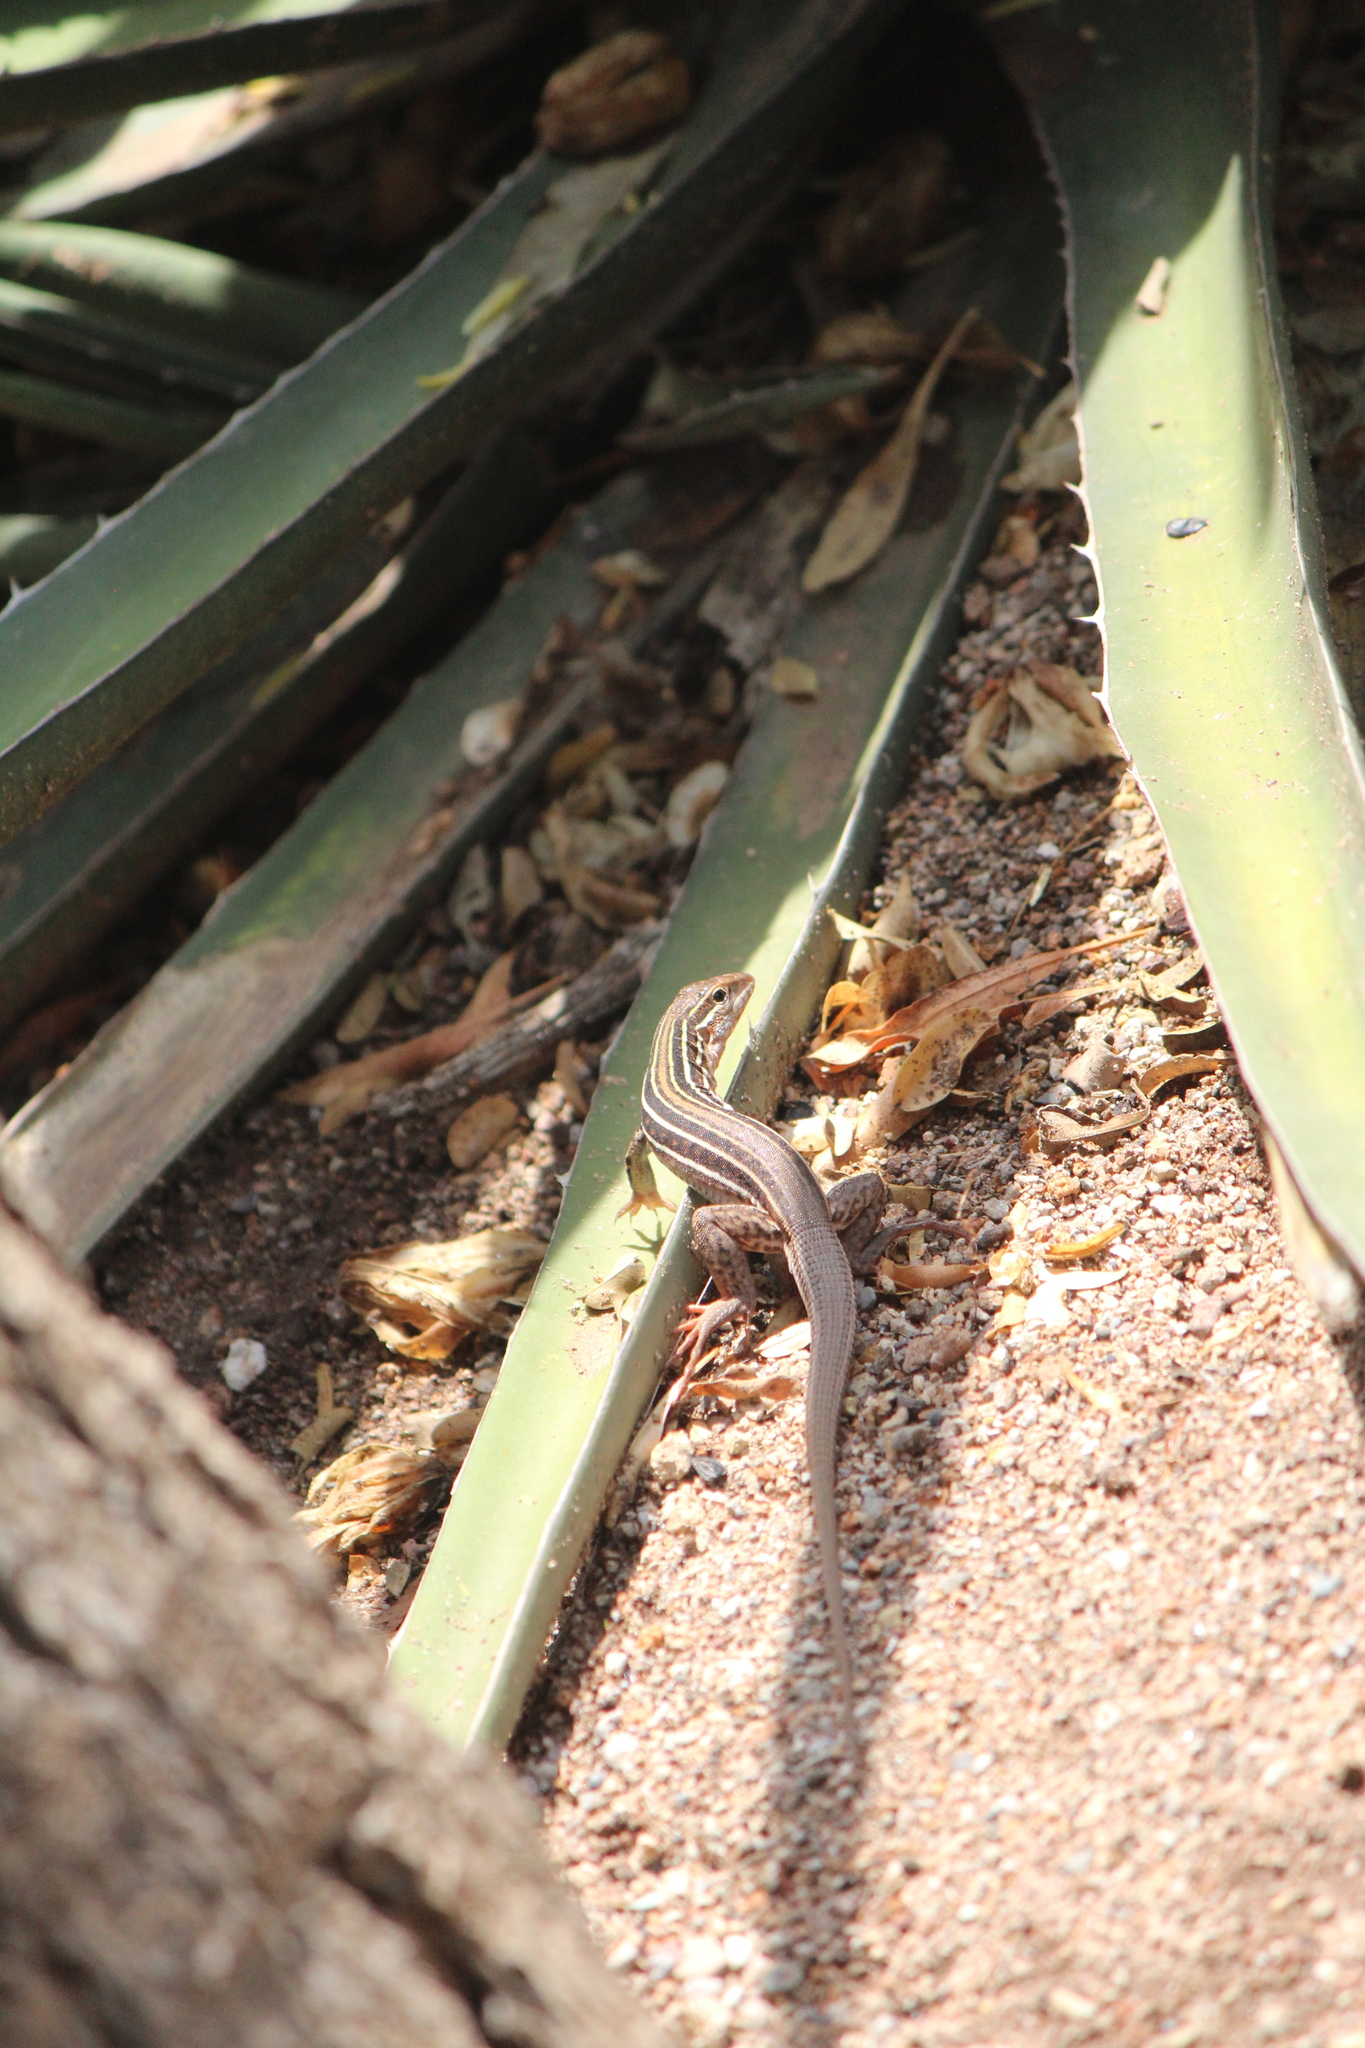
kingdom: Animalia
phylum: Chordata
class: Squamata
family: Teiidae
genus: Aspidoscelis
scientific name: Aspidoscelis gularis
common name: Eastern spotted whiptail
